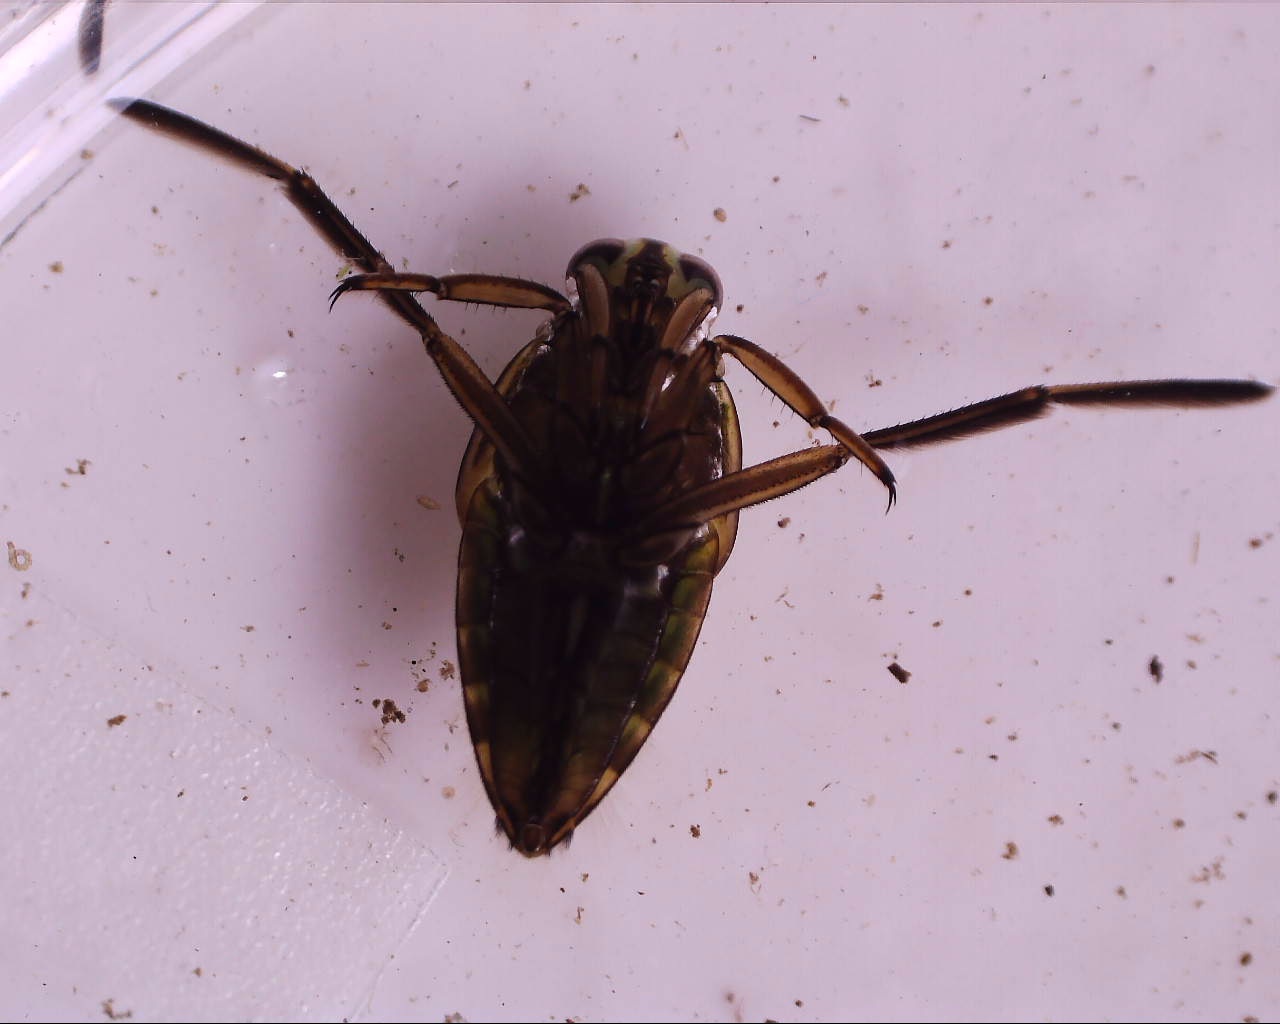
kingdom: Animalia
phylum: Arthropoda
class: Insecta
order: Hemiptera
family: Notonectidae
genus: Notonecta
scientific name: Notonecta
